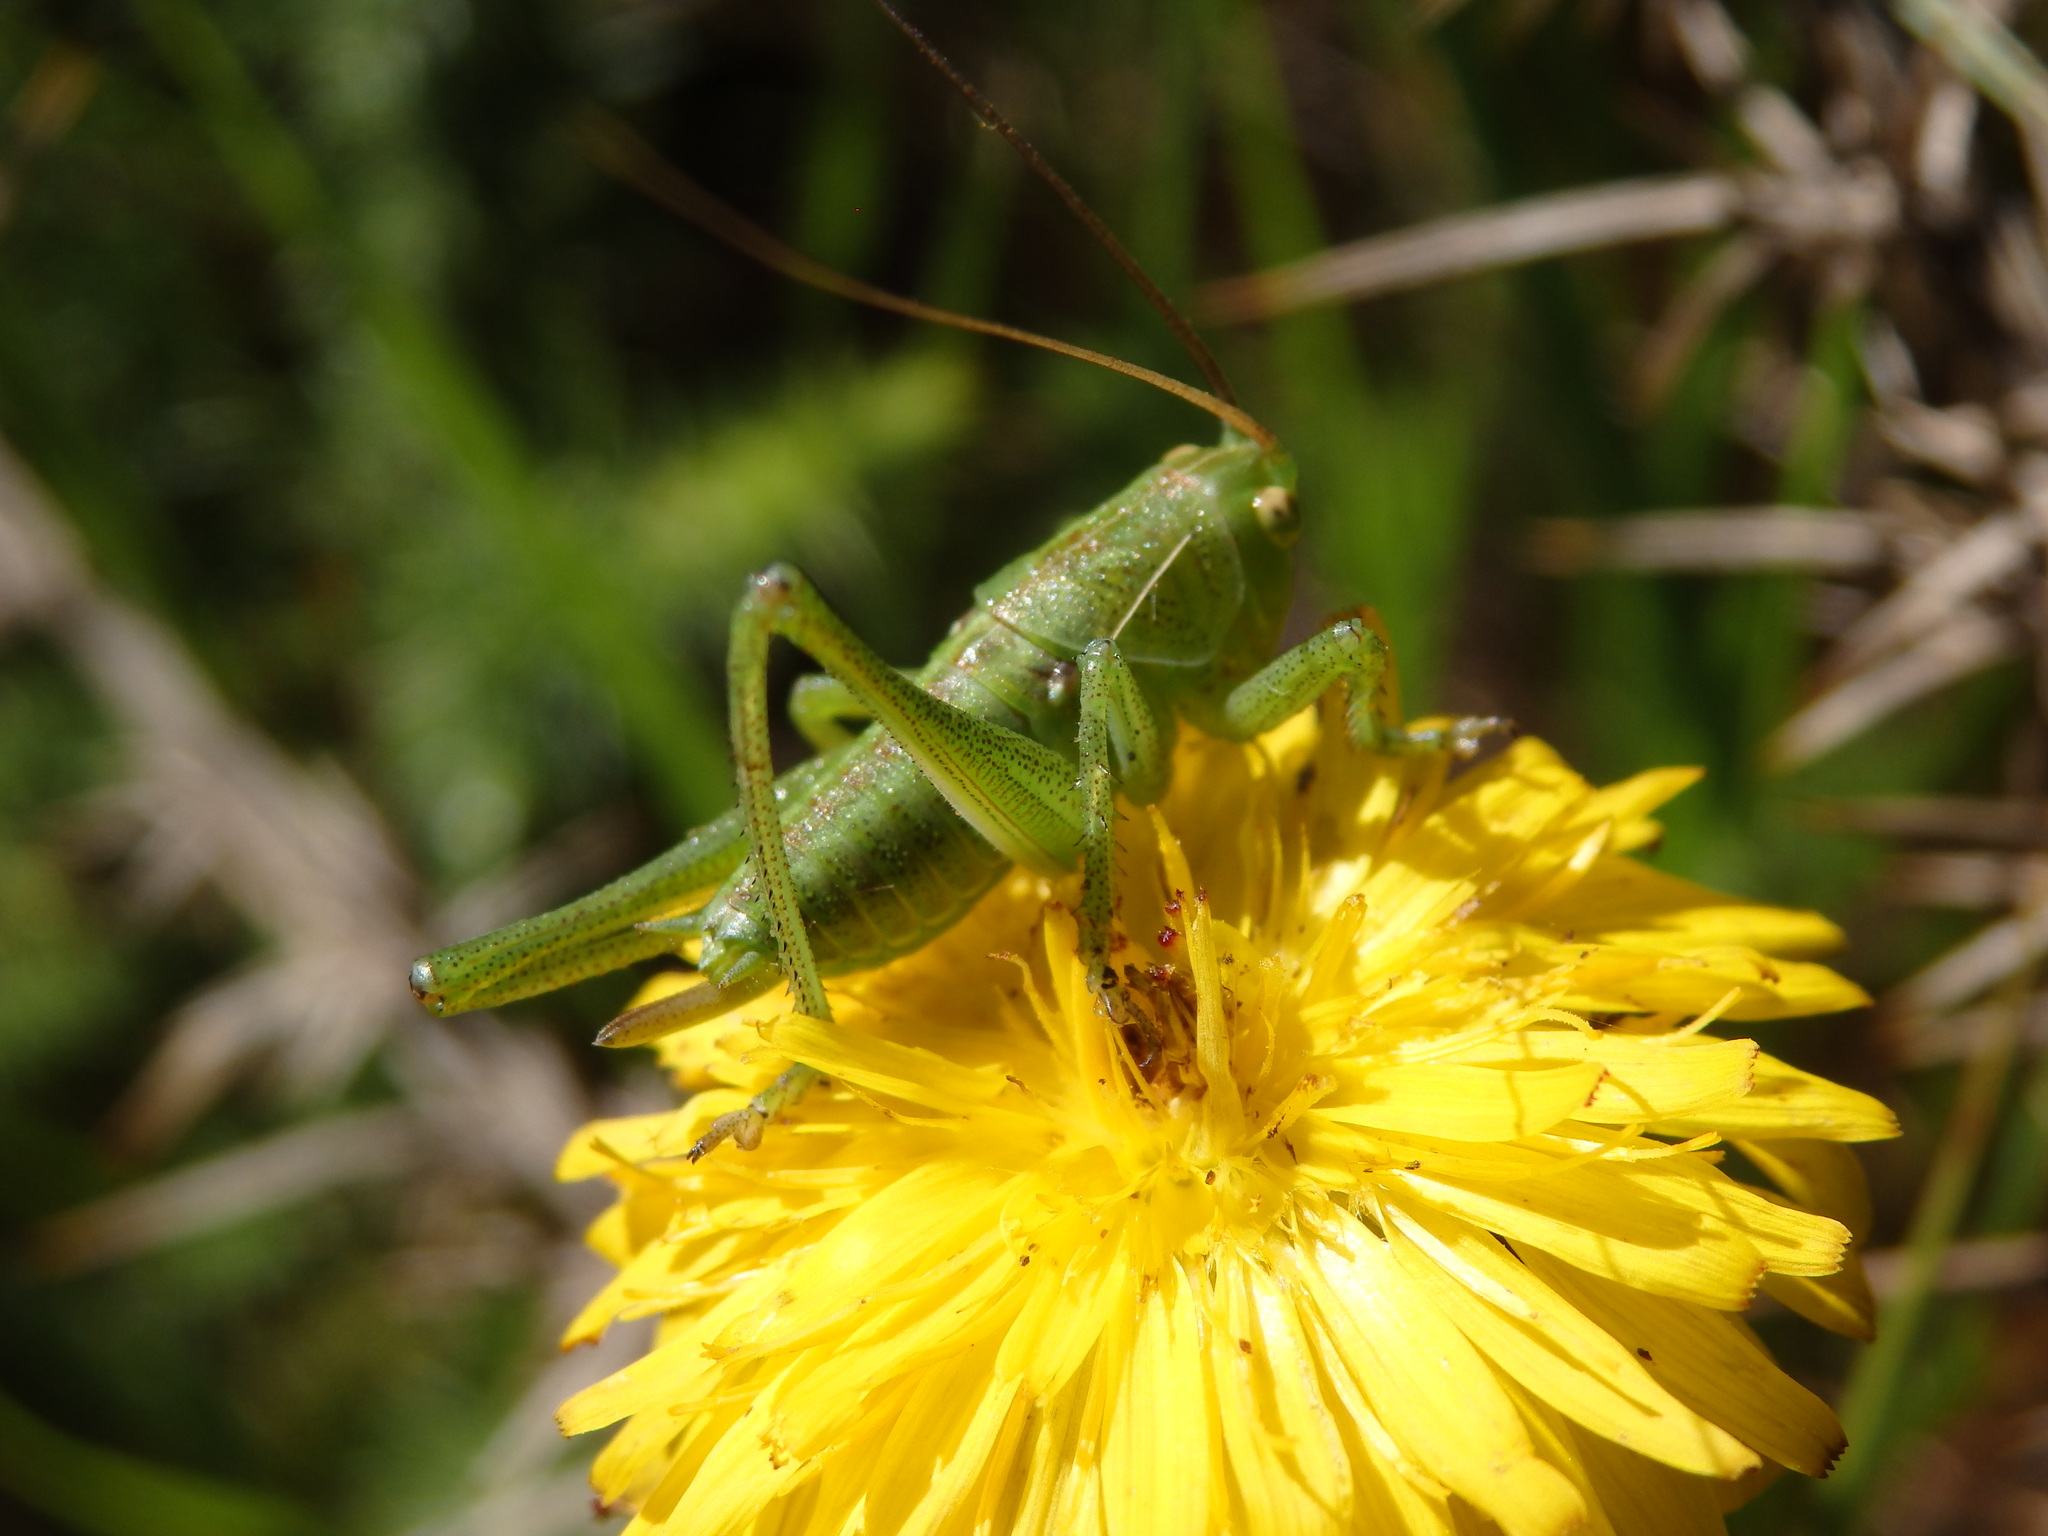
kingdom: Animalia
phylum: Arthropoda
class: Insecta
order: Orthoptera
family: Tettigoniidae
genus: Tettigonia
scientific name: Tettigonia viridissima
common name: Great green bush-cricket
